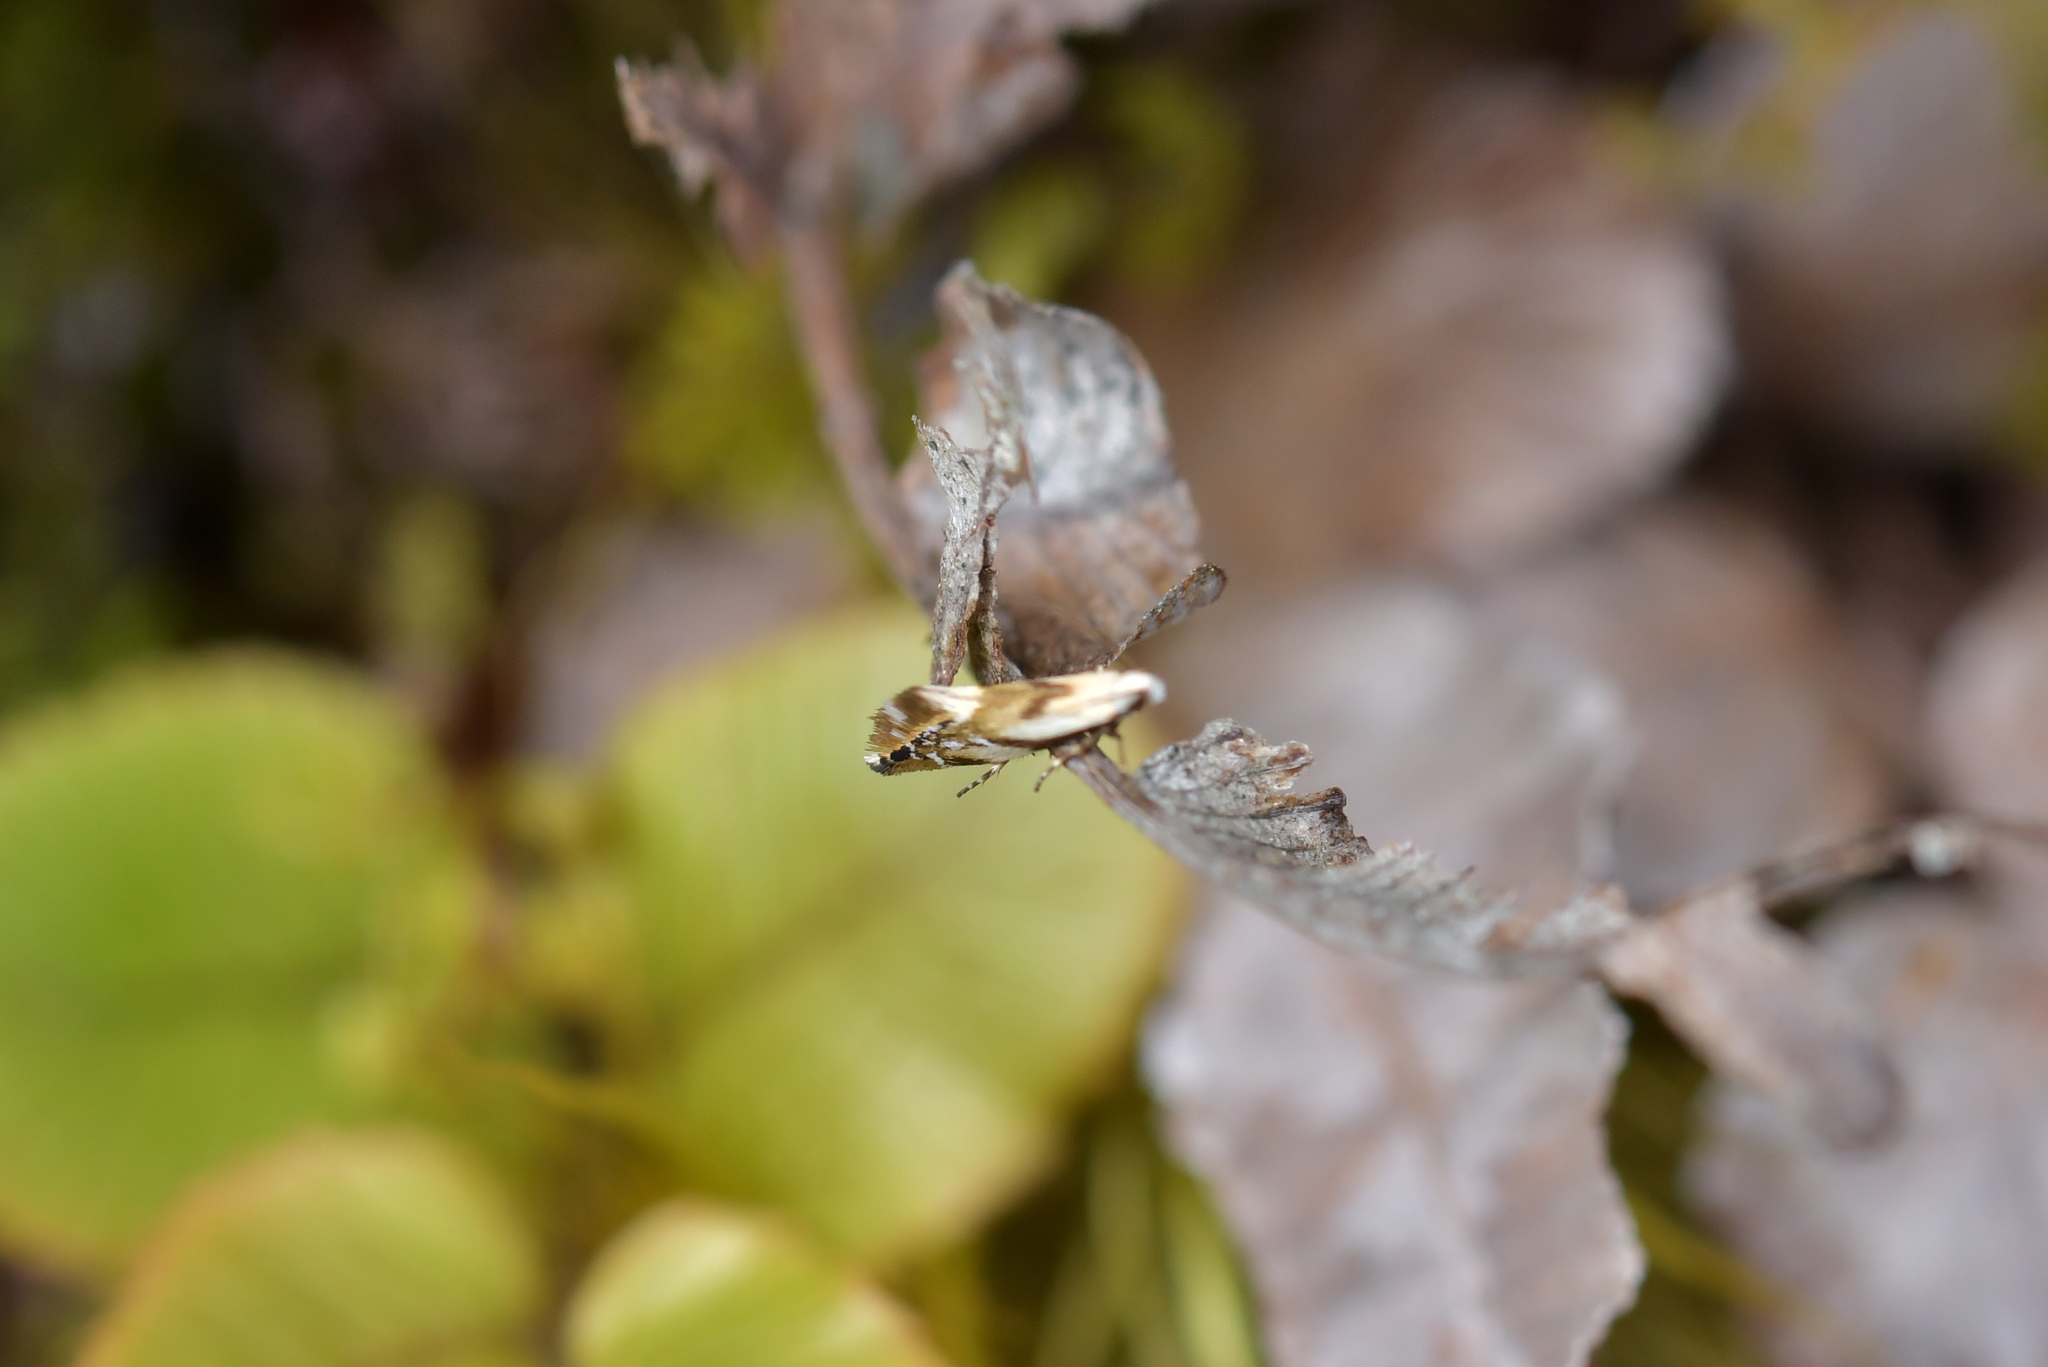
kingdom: Animalia
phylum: Arthropoda
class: Insecta
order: Lepidoptera
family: Mnesarchaeidae
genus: Mnesarchella
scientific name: Mnesarchella acuta
